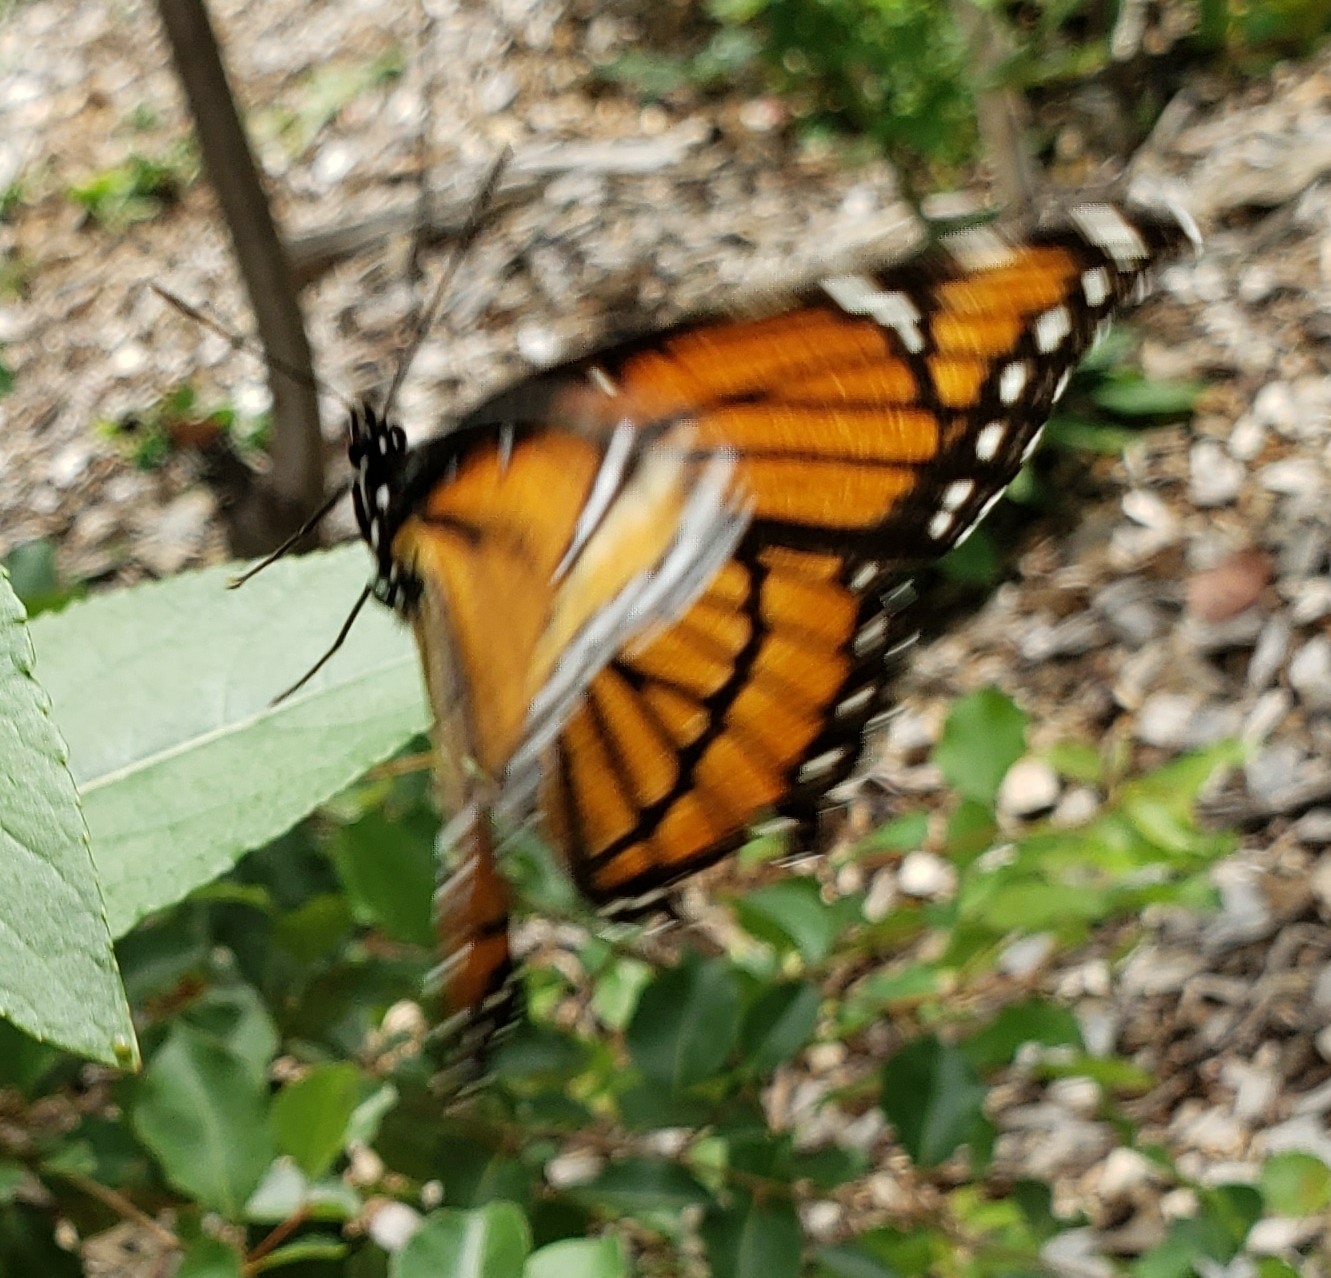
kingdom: Animalia
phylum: Arthropoda
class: Insecta
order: Lepidoptera
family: Nymphalidae
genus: Limenitis
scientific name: Limenitis archippus
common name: Viceroy
